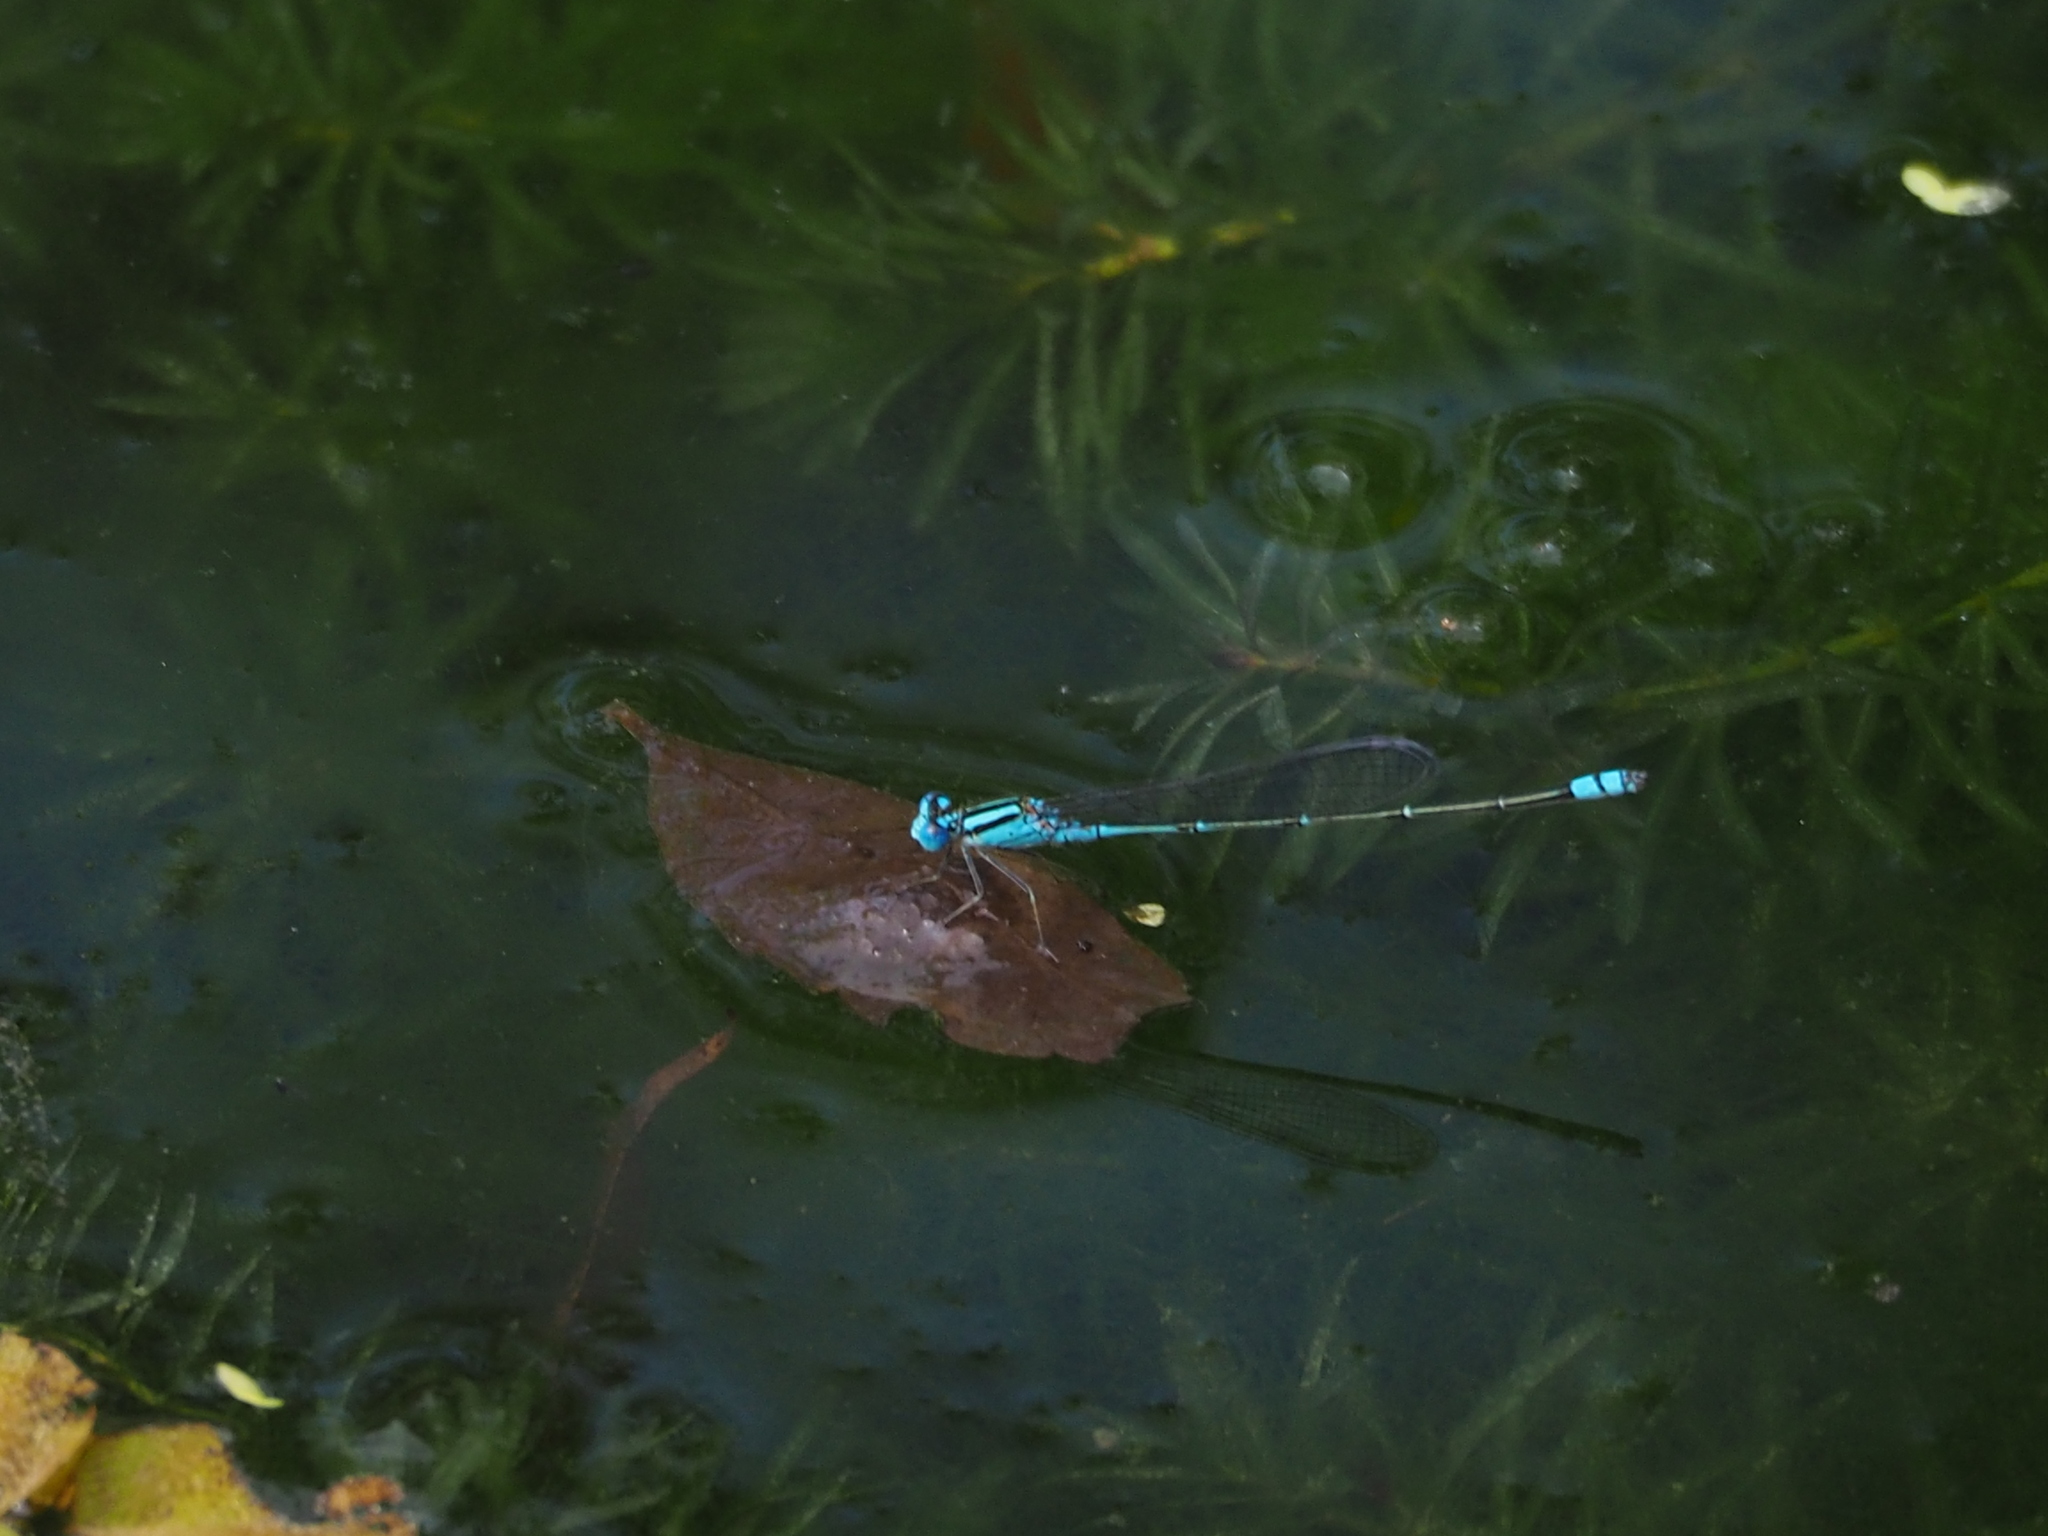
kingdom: Animalia
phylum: Arthropoda
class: Insecta
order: Odonata
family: Coenagrionidae
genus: Pseudagrion
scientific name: Pseudagrion microcephalum
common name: Blue riverdamsel
